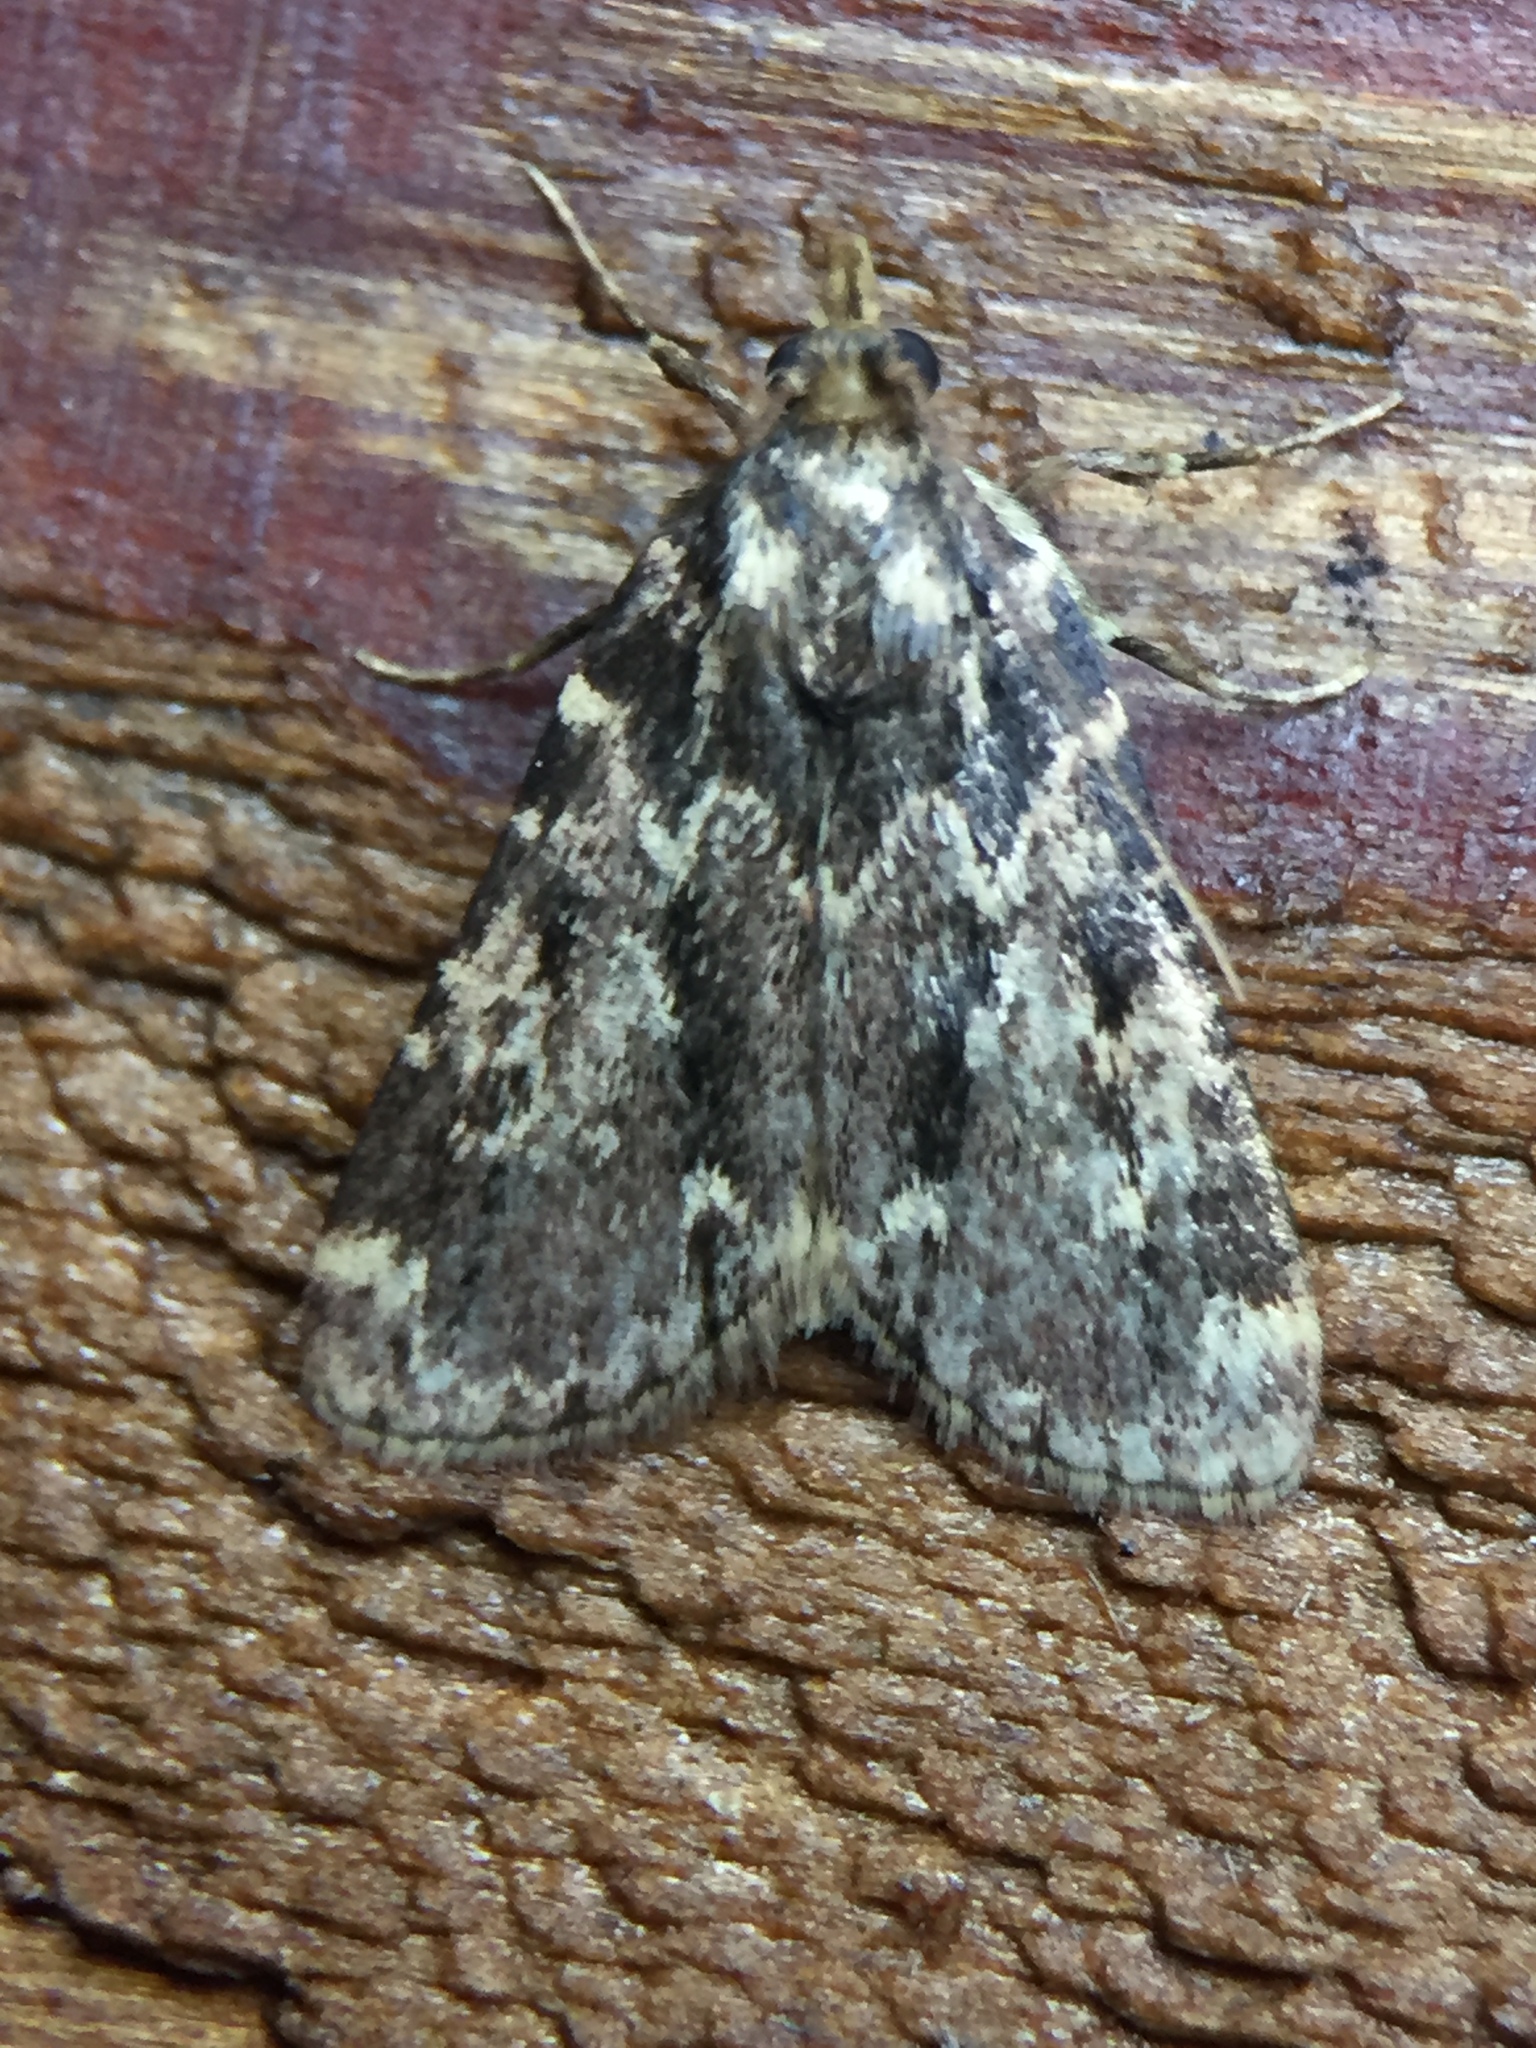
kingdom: Animalia
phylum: Arthropoda
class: Insecta
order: Lepidoptera
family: Pyralidae
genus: Aglossa
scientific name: Aglossa caprealis
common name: Small tabby
